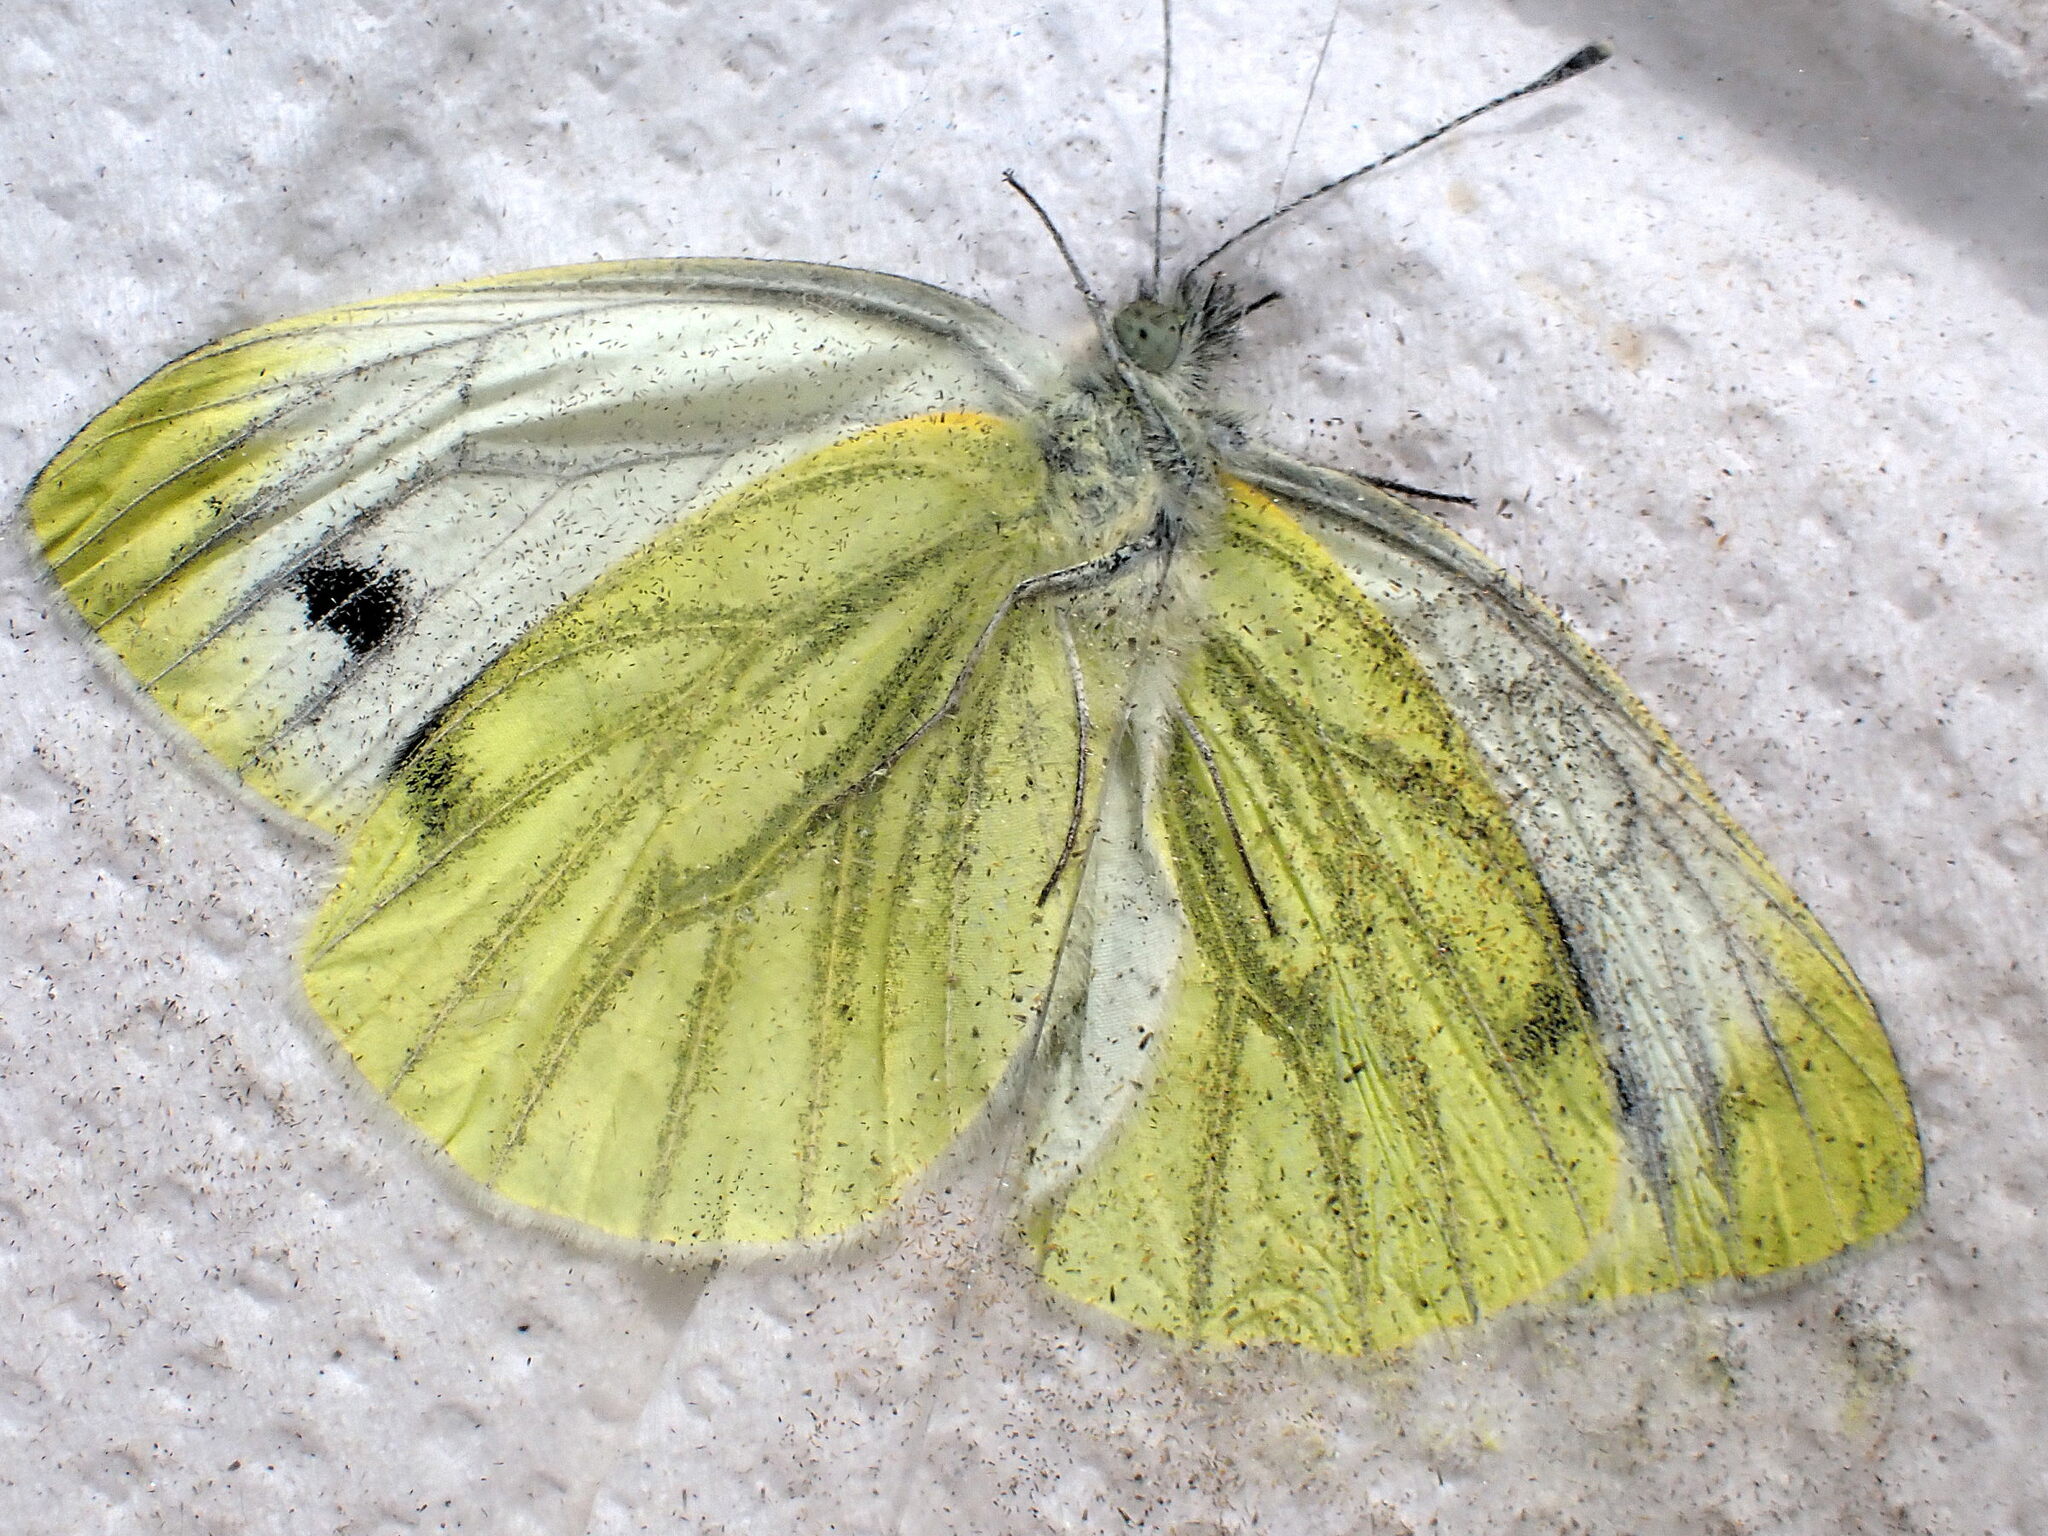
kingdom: Animalia
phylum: Arthropoda
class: Insecta
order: Lepidoptera
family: Pieridae
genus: Pieris
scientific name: Pieris napi
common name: Green-veined white
